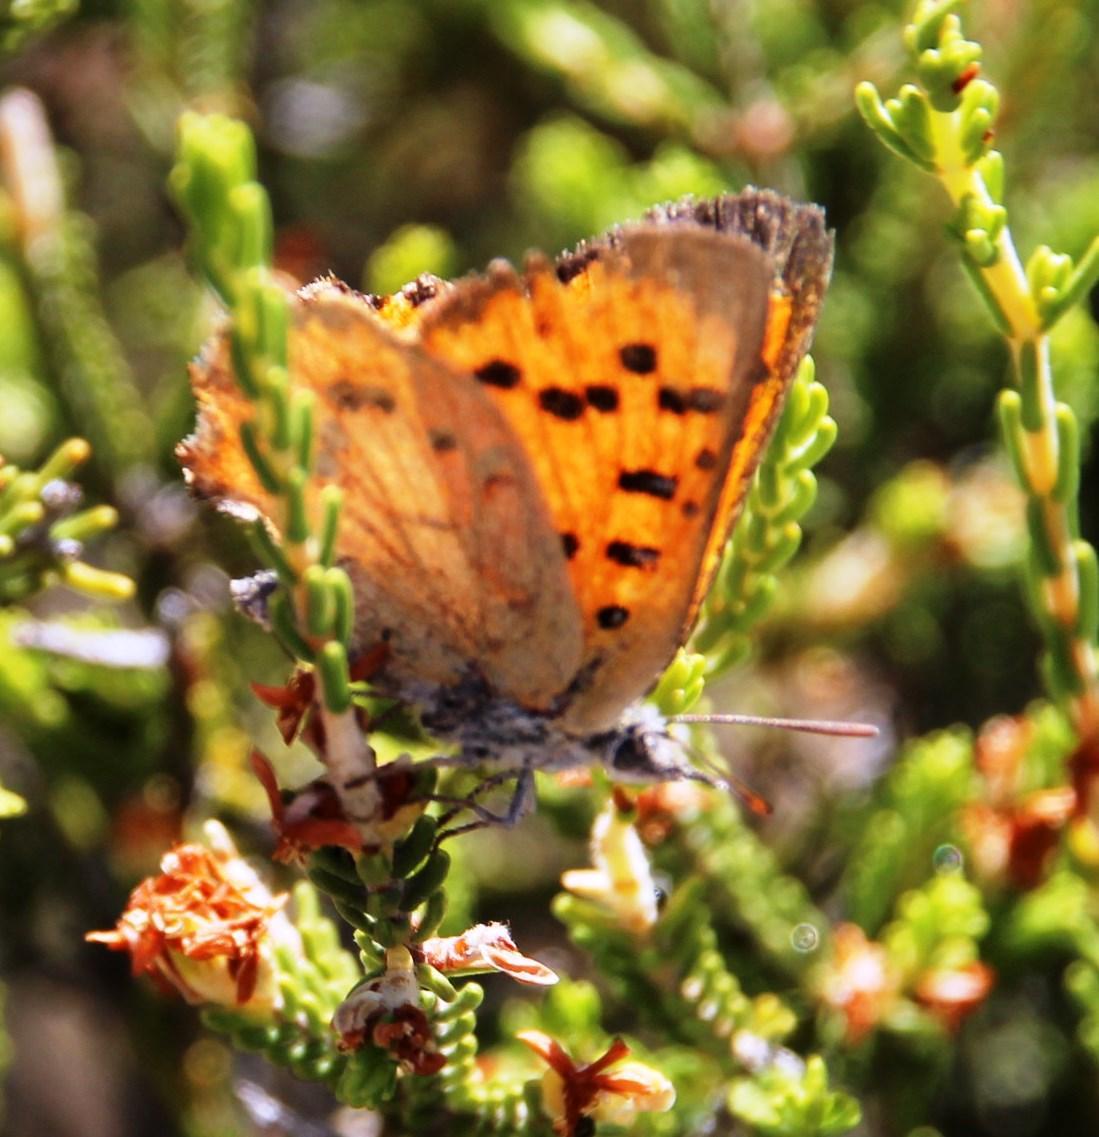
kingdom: Animalia
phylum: Arthropoda
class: Insecta
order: Lepidoptera
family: Lycaenidae
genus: Zeritis
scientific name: Zeritis chrysaor
